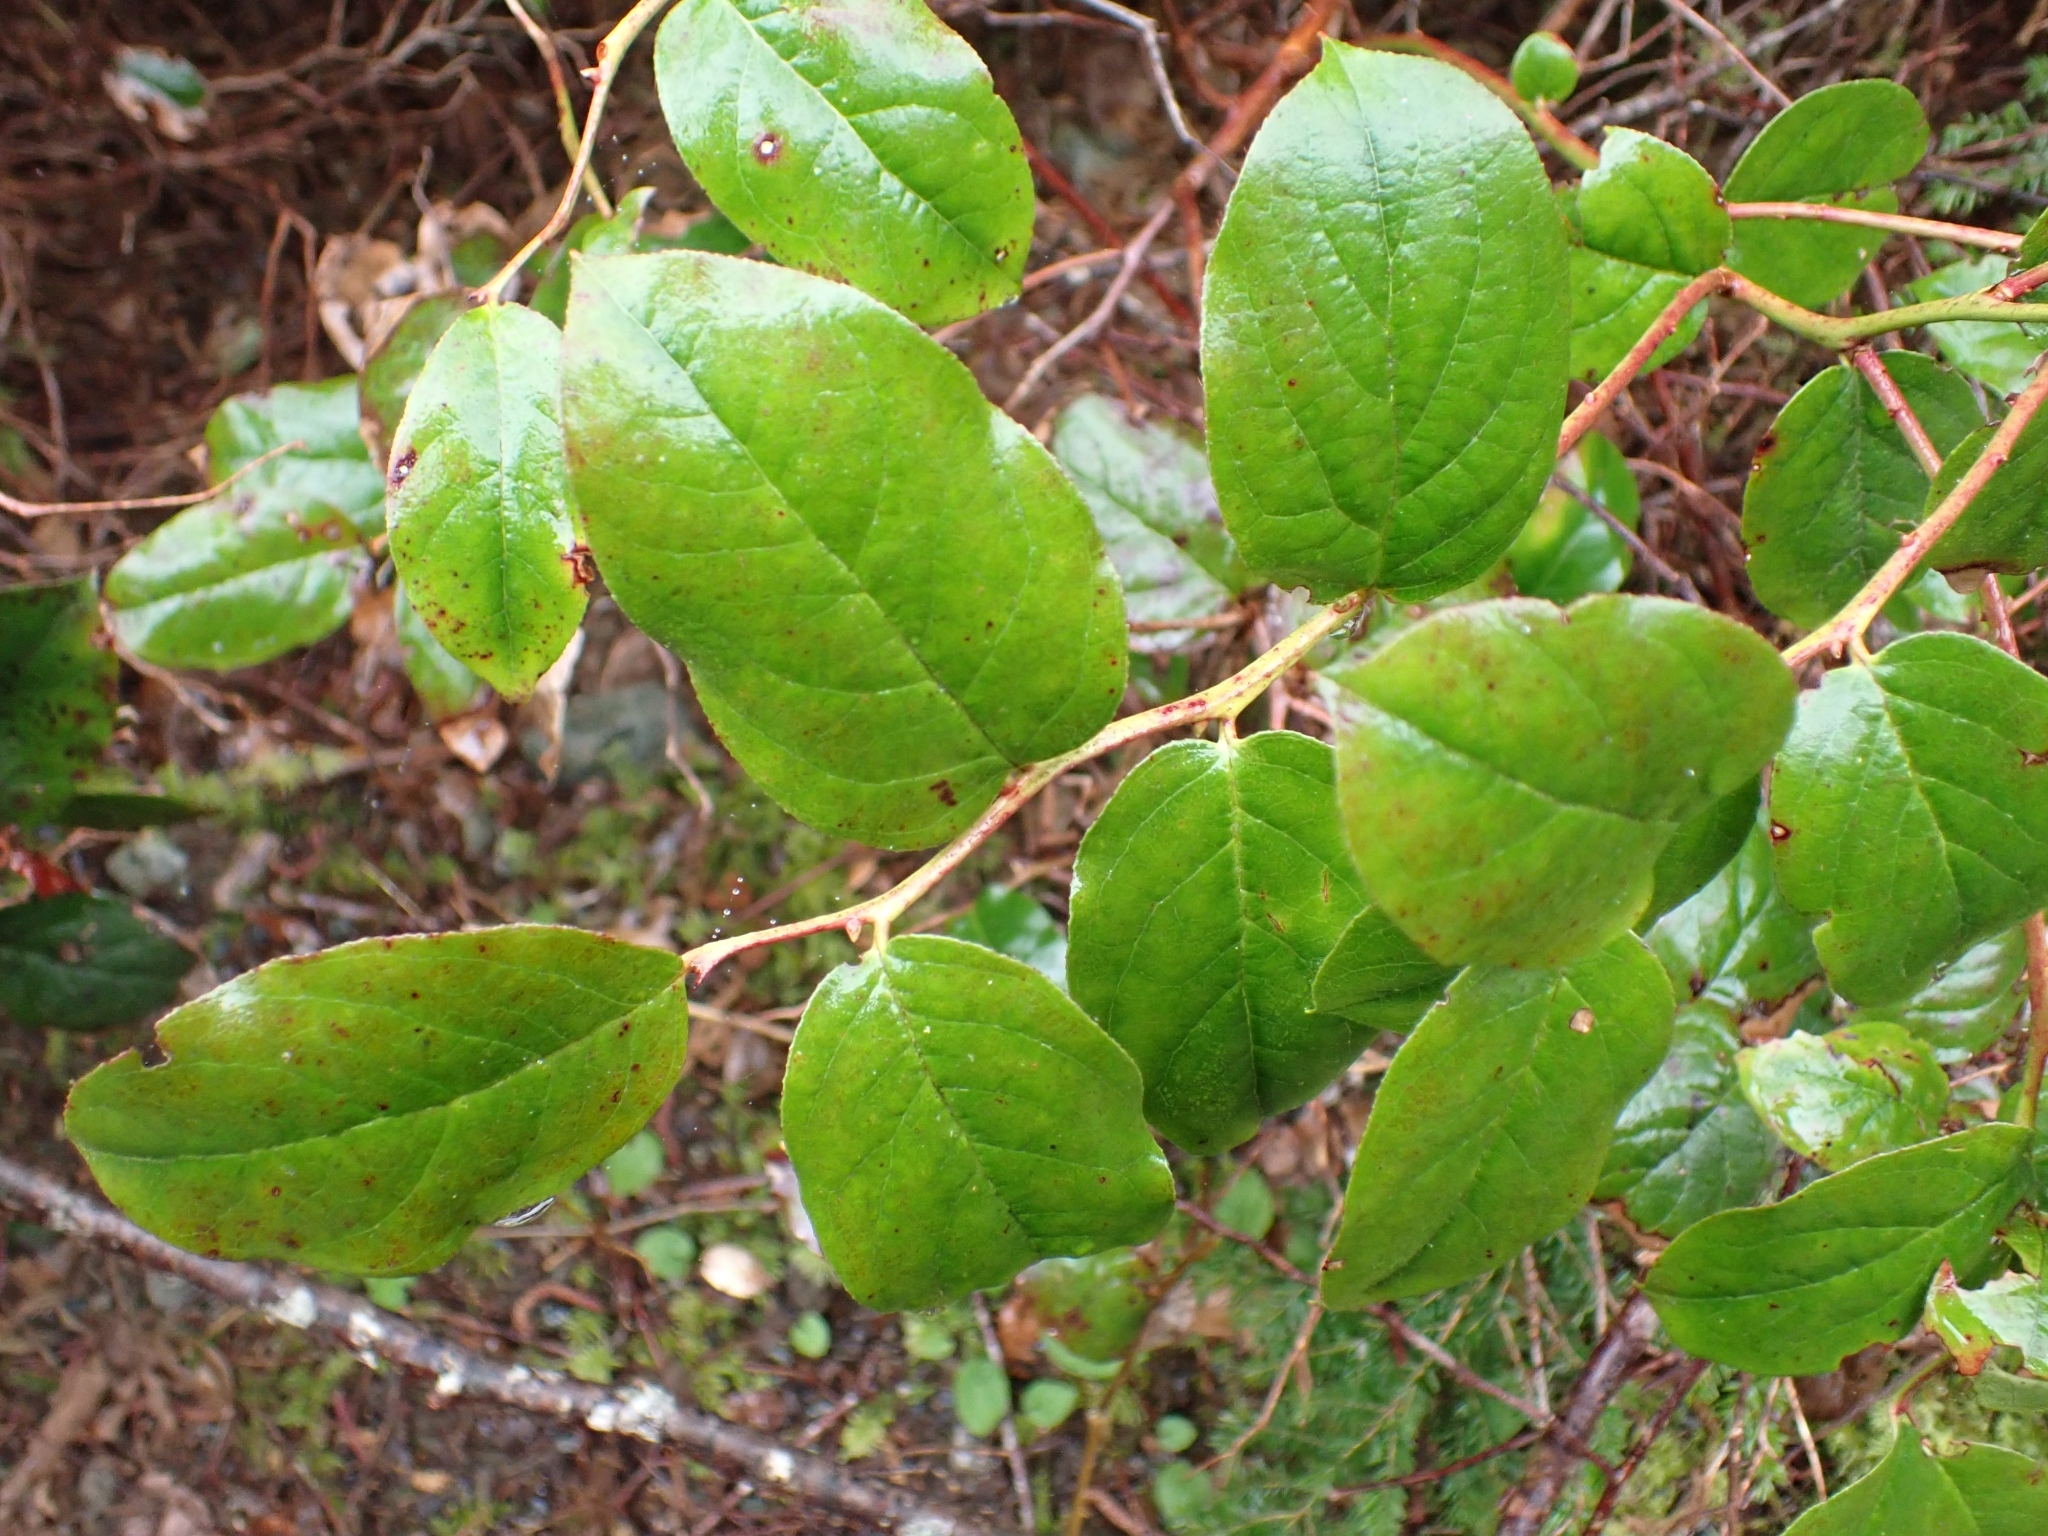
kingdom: Plantae
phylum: Tracheophyta
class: Magnoliopsida
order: Ericales
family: Ericaceae
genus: Gaultheria
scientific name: Gaultheria shallon
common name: Shallon
